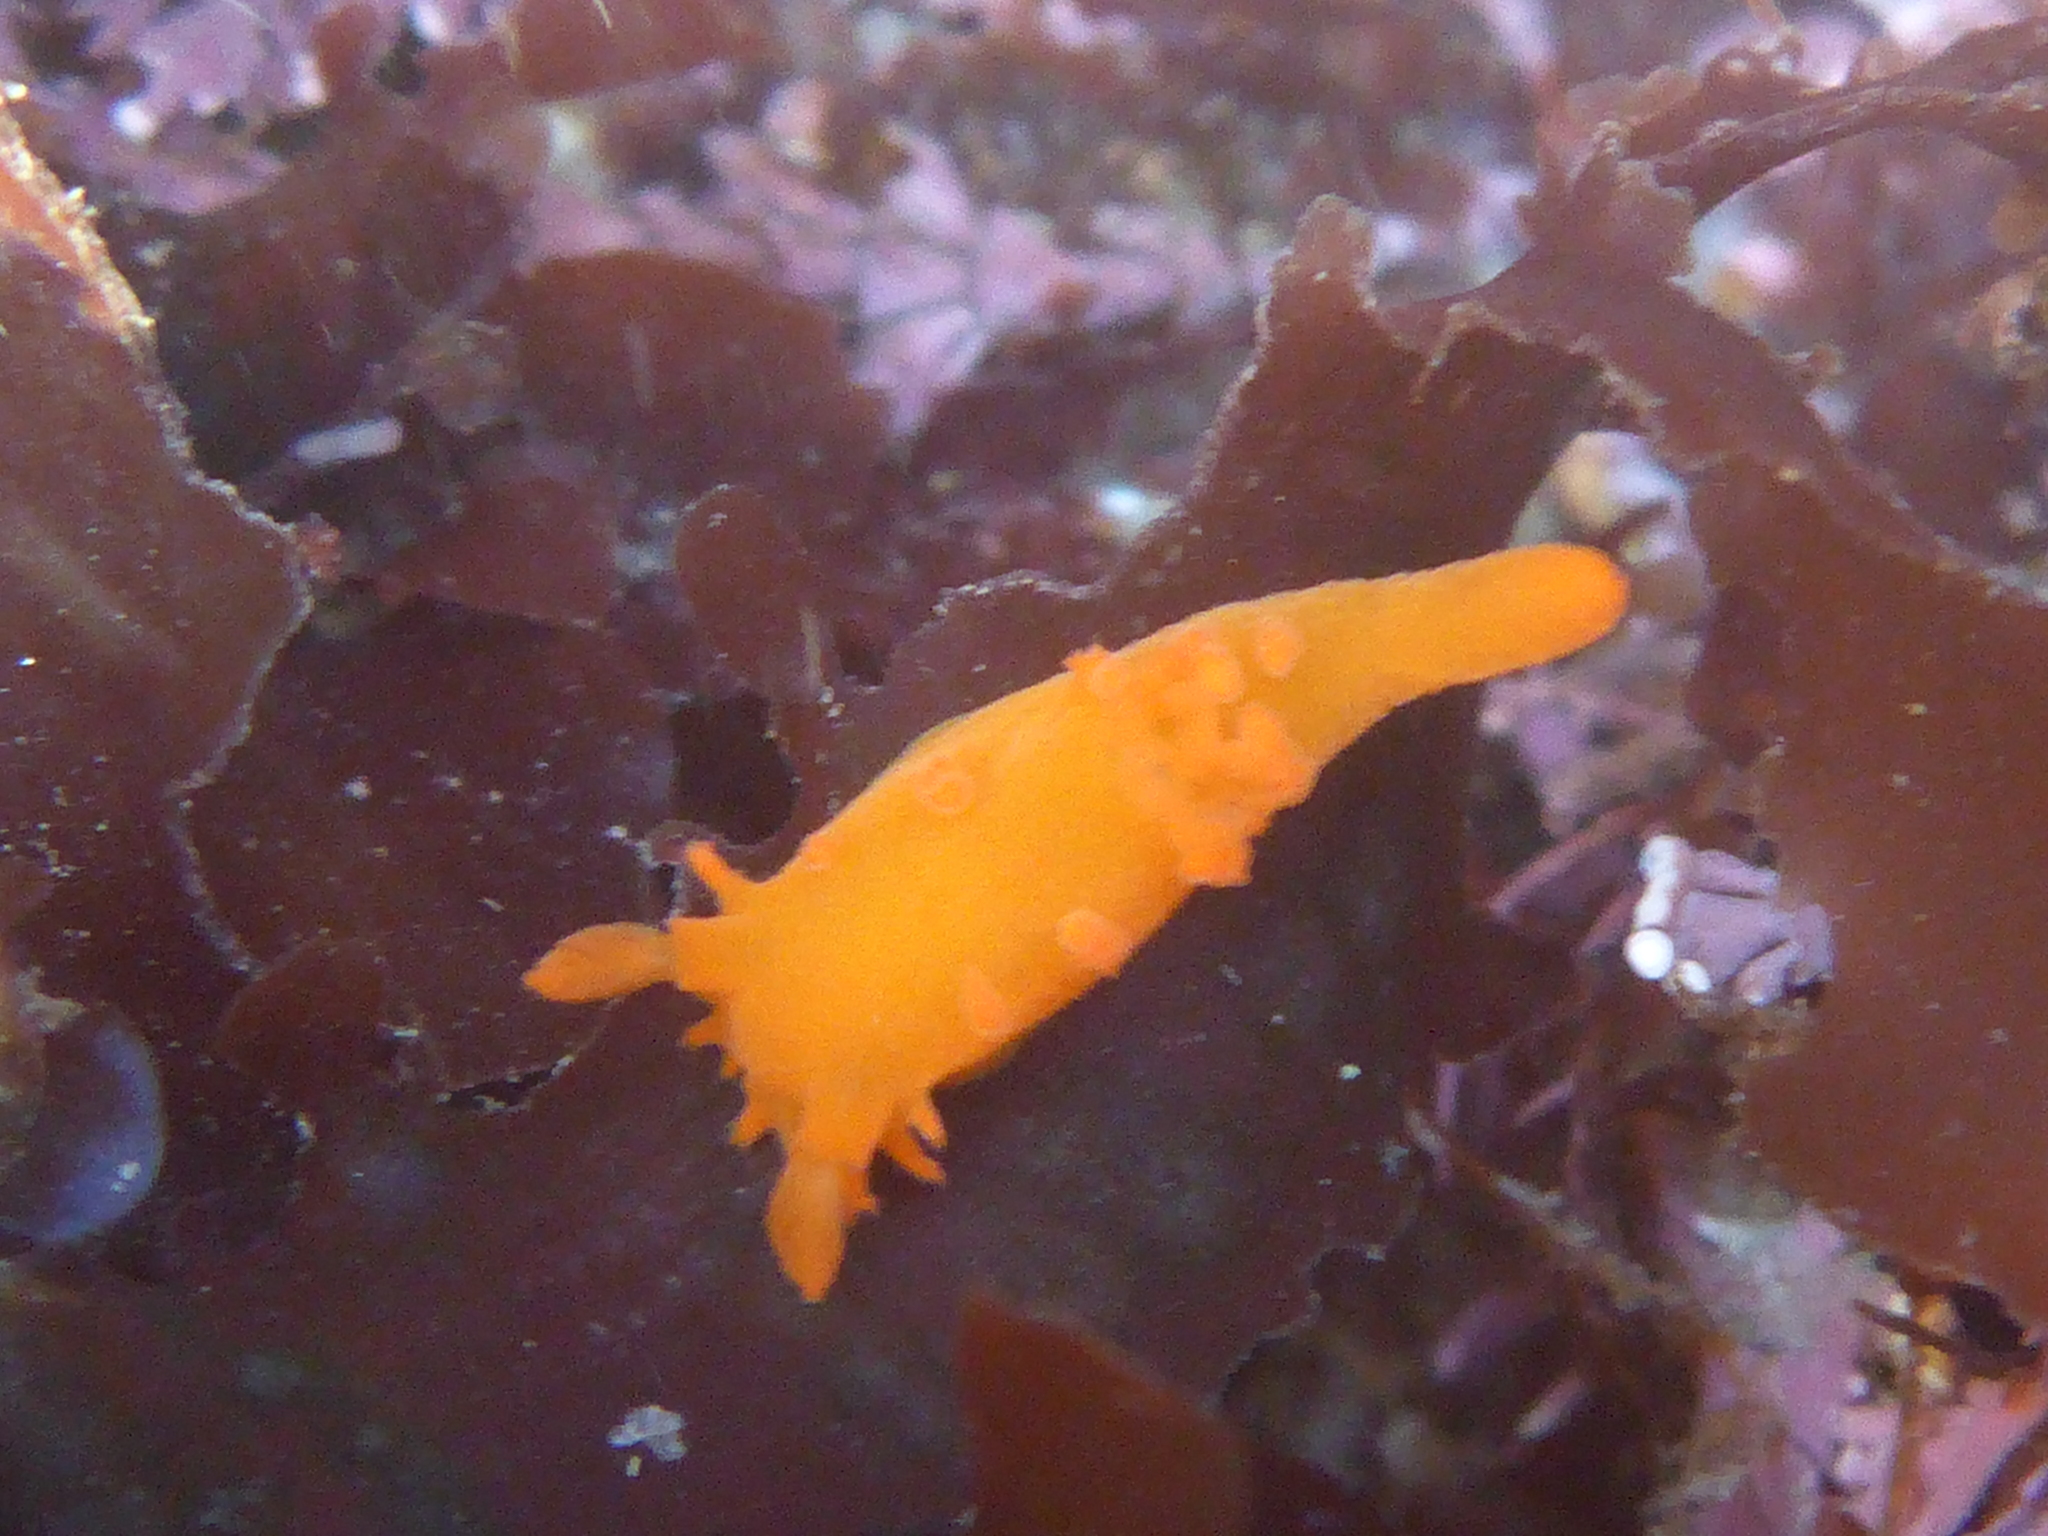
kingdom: Animalia
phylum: Mollusca
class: Gastropoda
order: Nudibranchia
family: Polyceridae
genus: Triopha
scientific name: Triopha maculata
